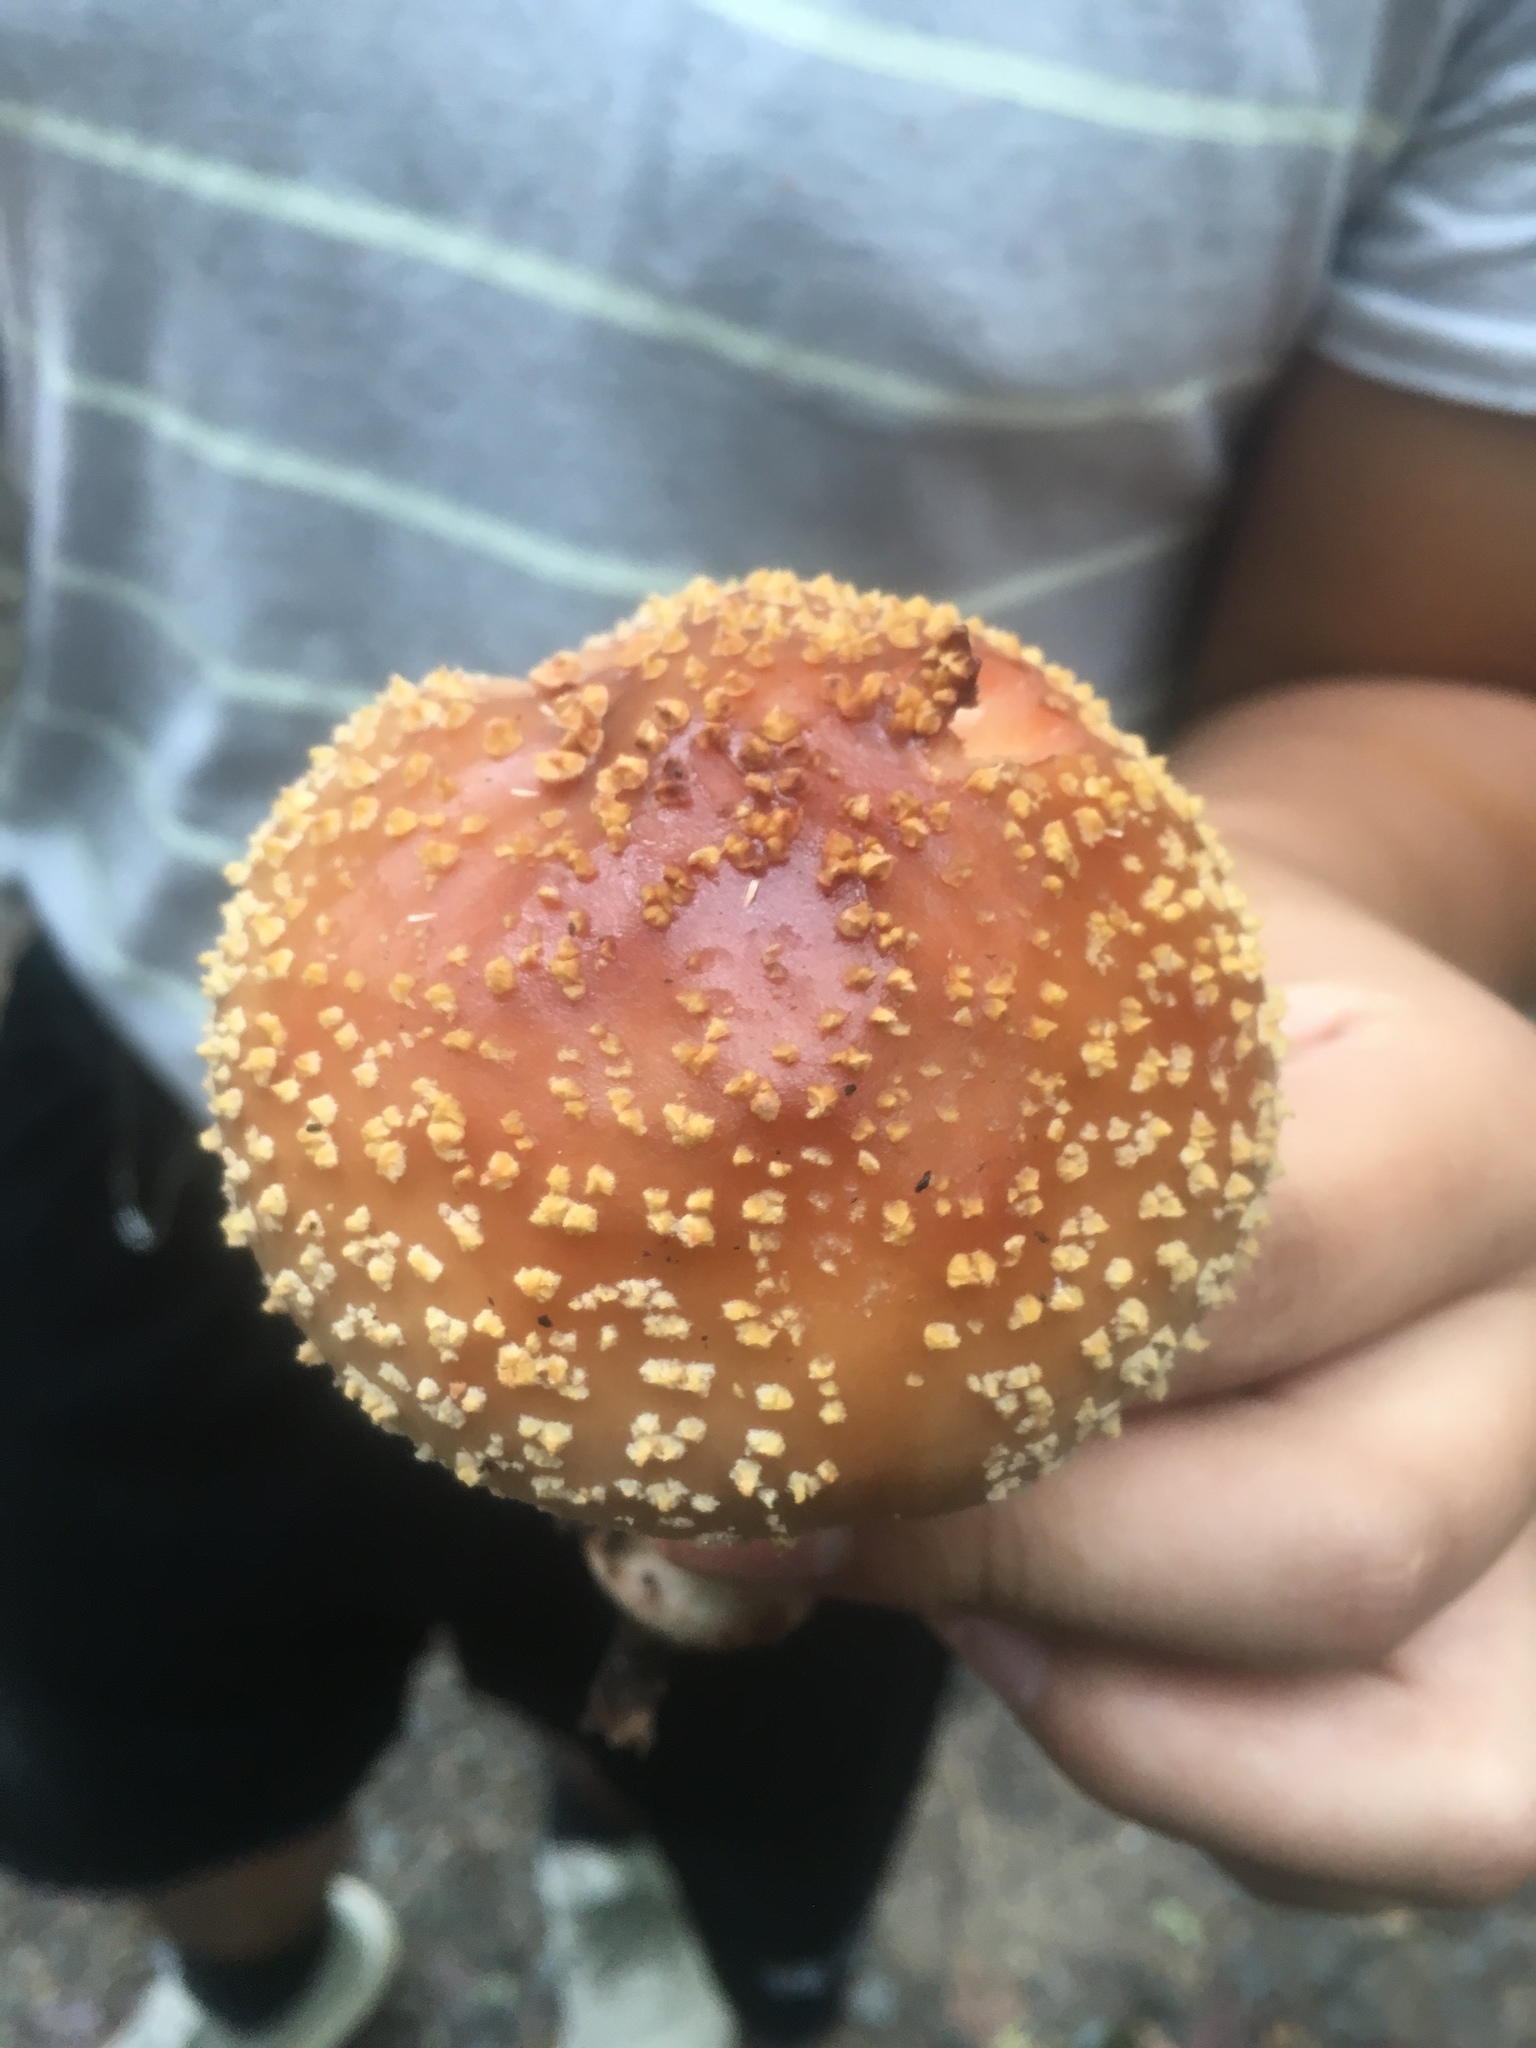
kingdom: Fungi
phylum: Basidiomycota
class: Agaricomycetes
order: Agaricales
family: Amanitaceae
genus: Amanita
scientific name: Amanita rubescens
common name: Blusher
